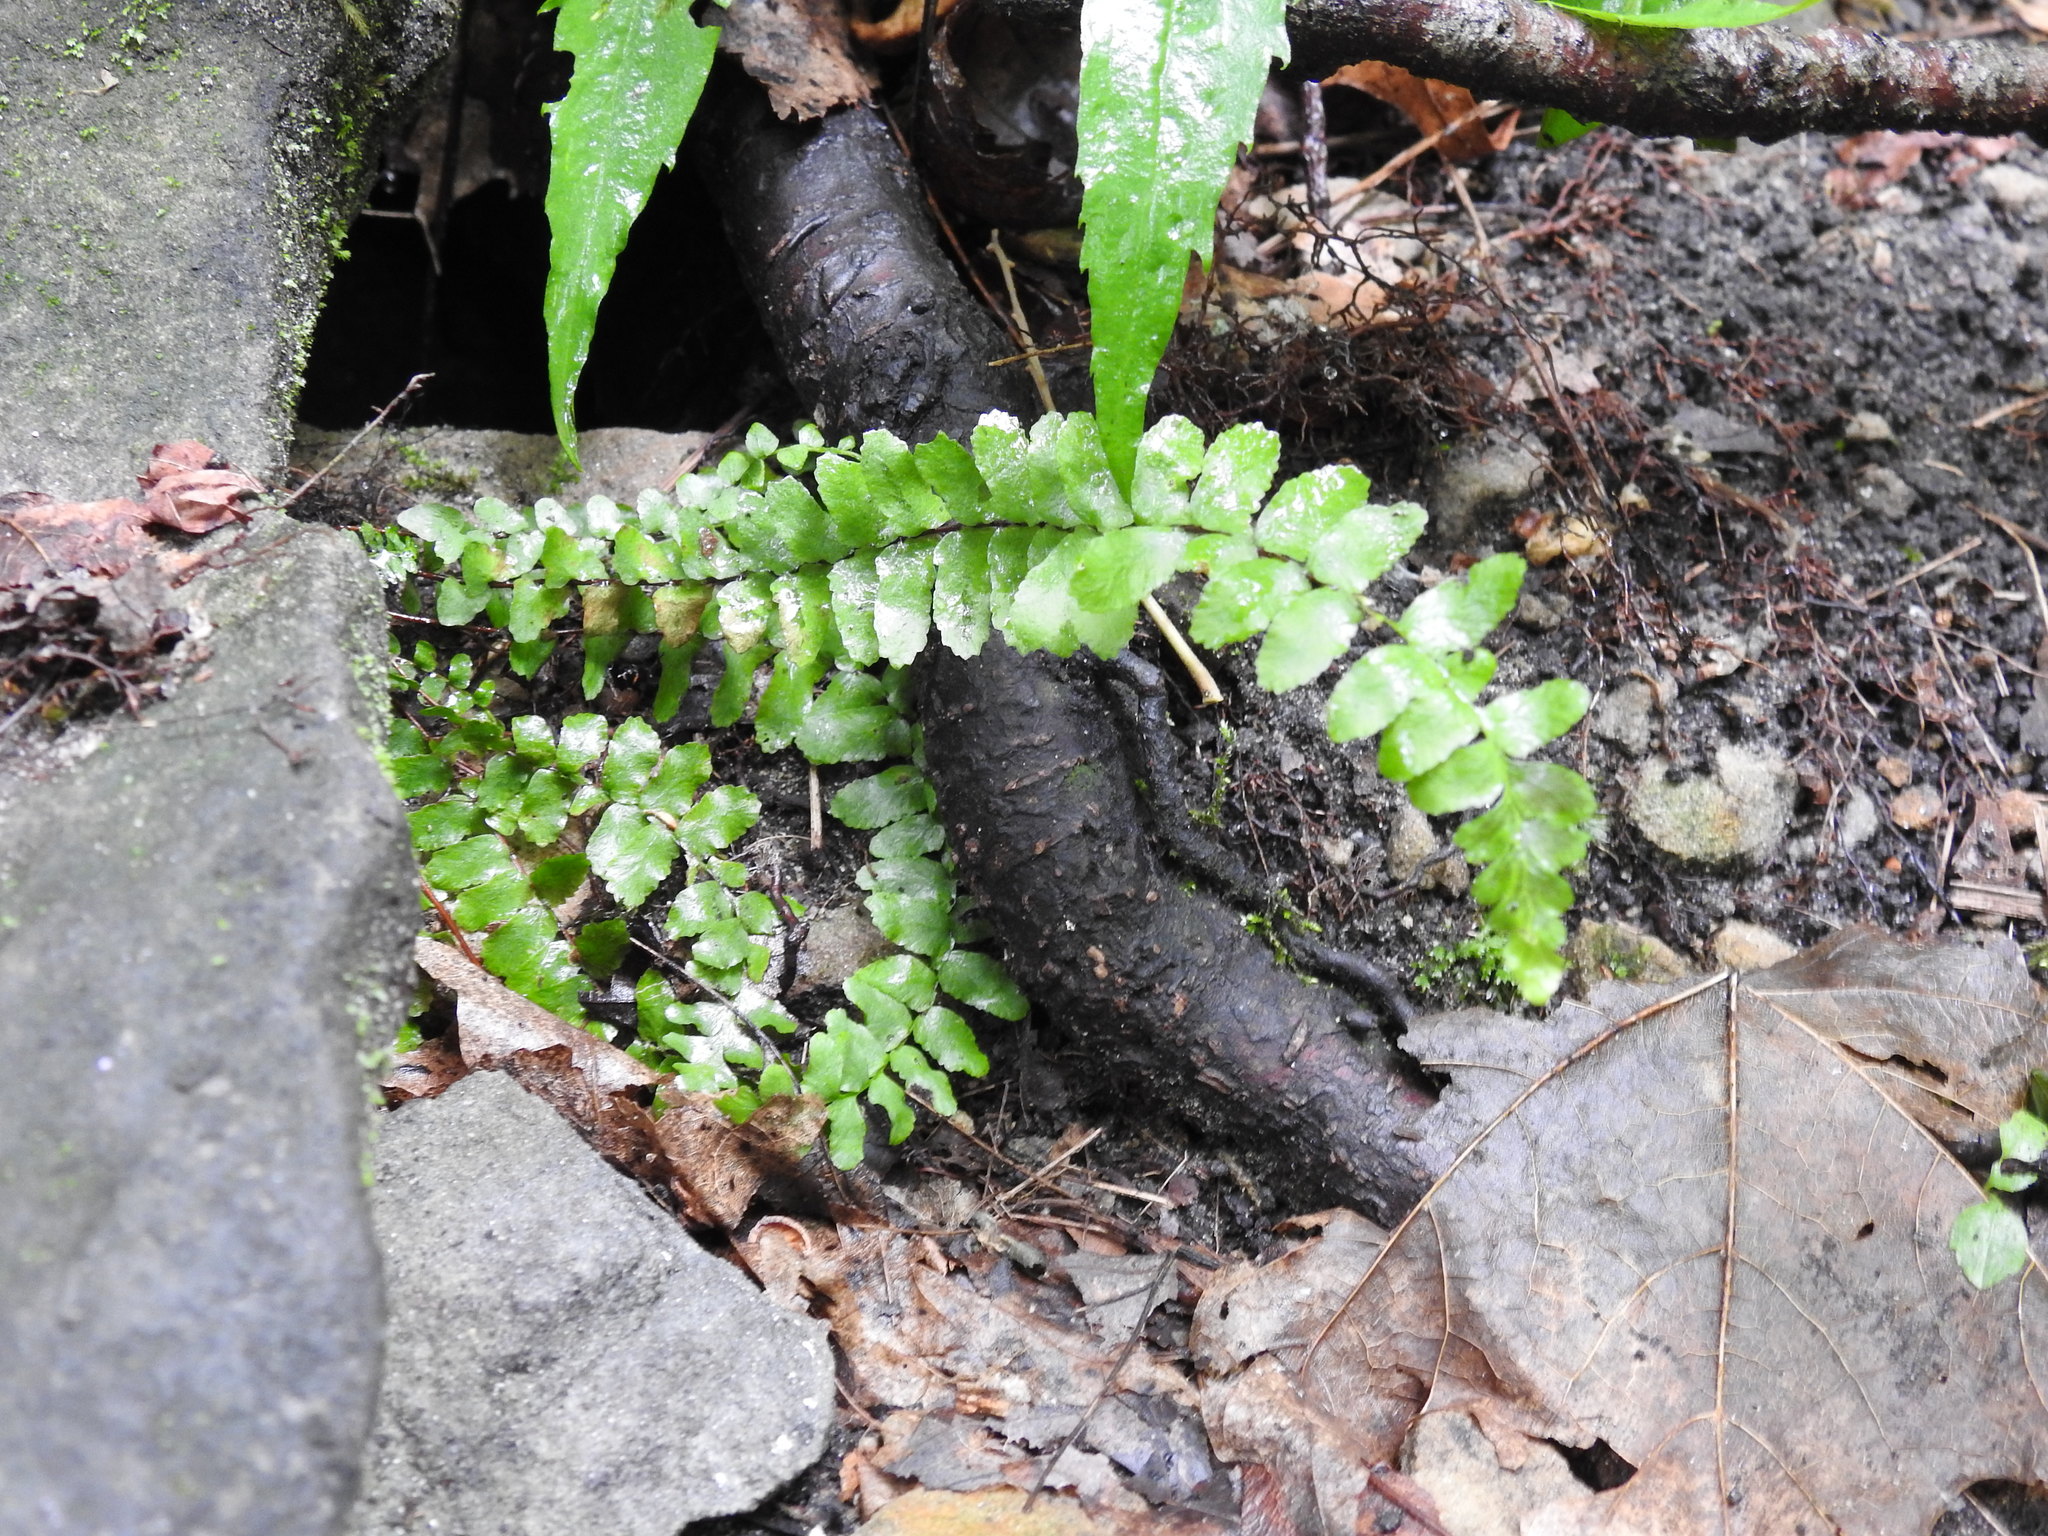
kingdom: Plantae
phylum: Tracheophyta
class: Polypodiopsida
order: Polypodiales
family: Aspleniaceae
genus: Asplenium
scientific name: Asplenium platyneuron
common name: Ebony spleenwort
